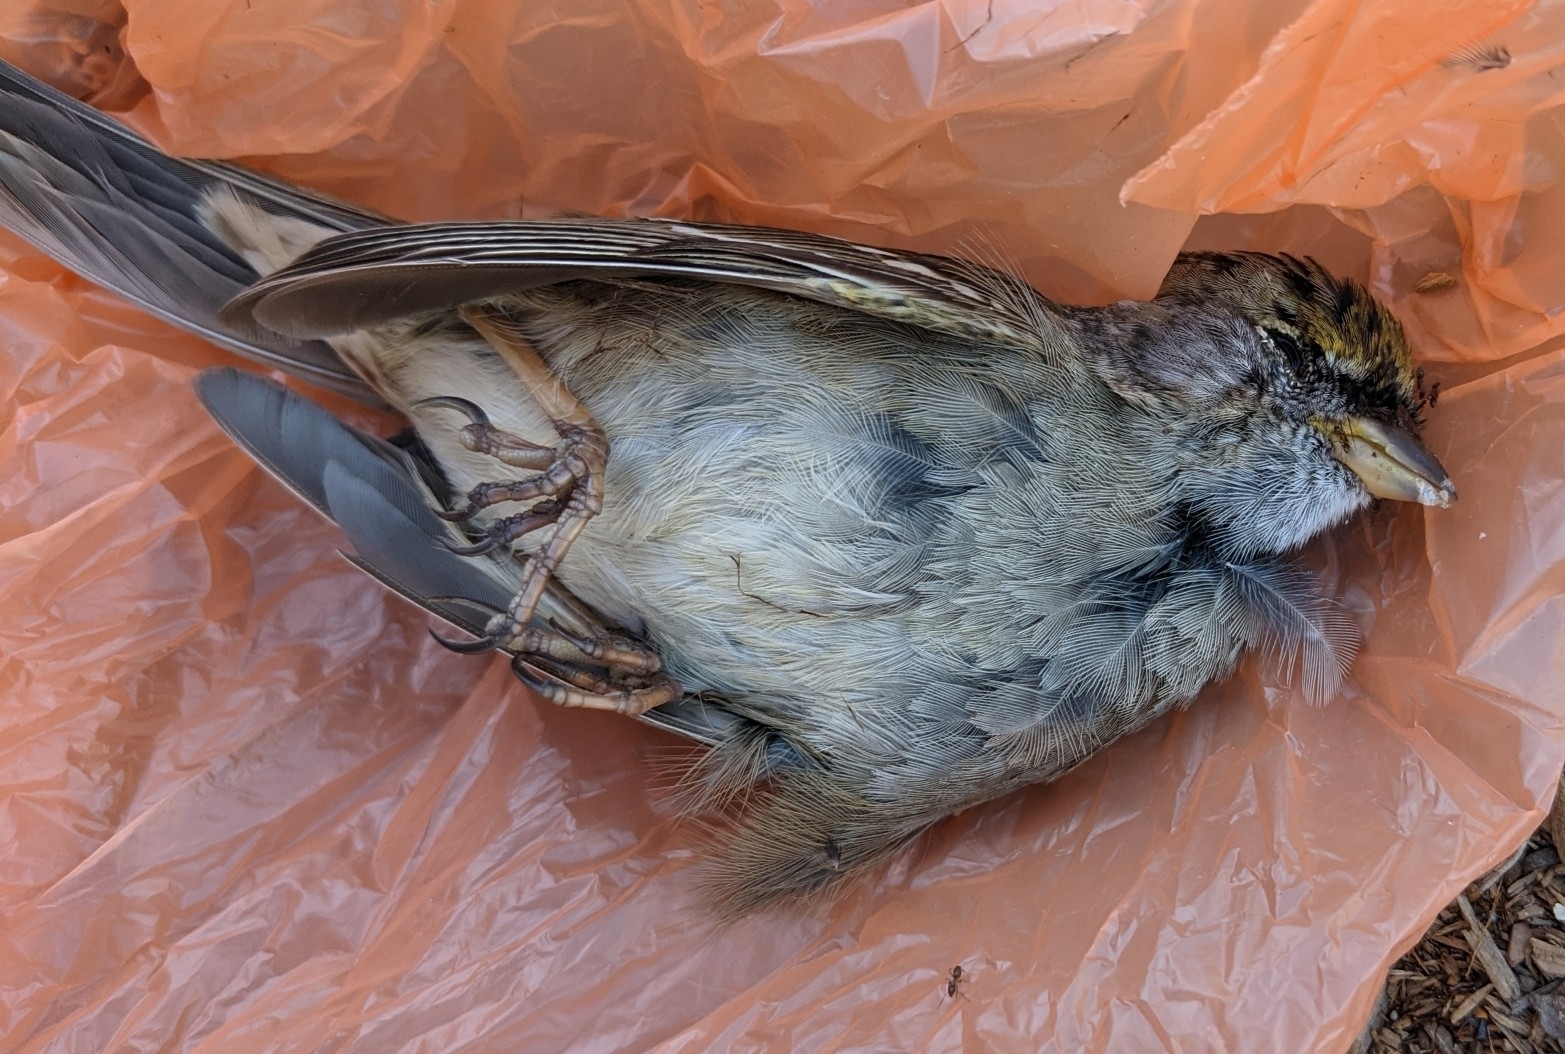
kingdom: Animalia
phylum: Chordata
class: Aves
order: Passeriformes
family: Passerellidae
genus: Zonotrichia
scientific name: Zonotrichia atricapilla
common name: Golden-crowned sparrow
